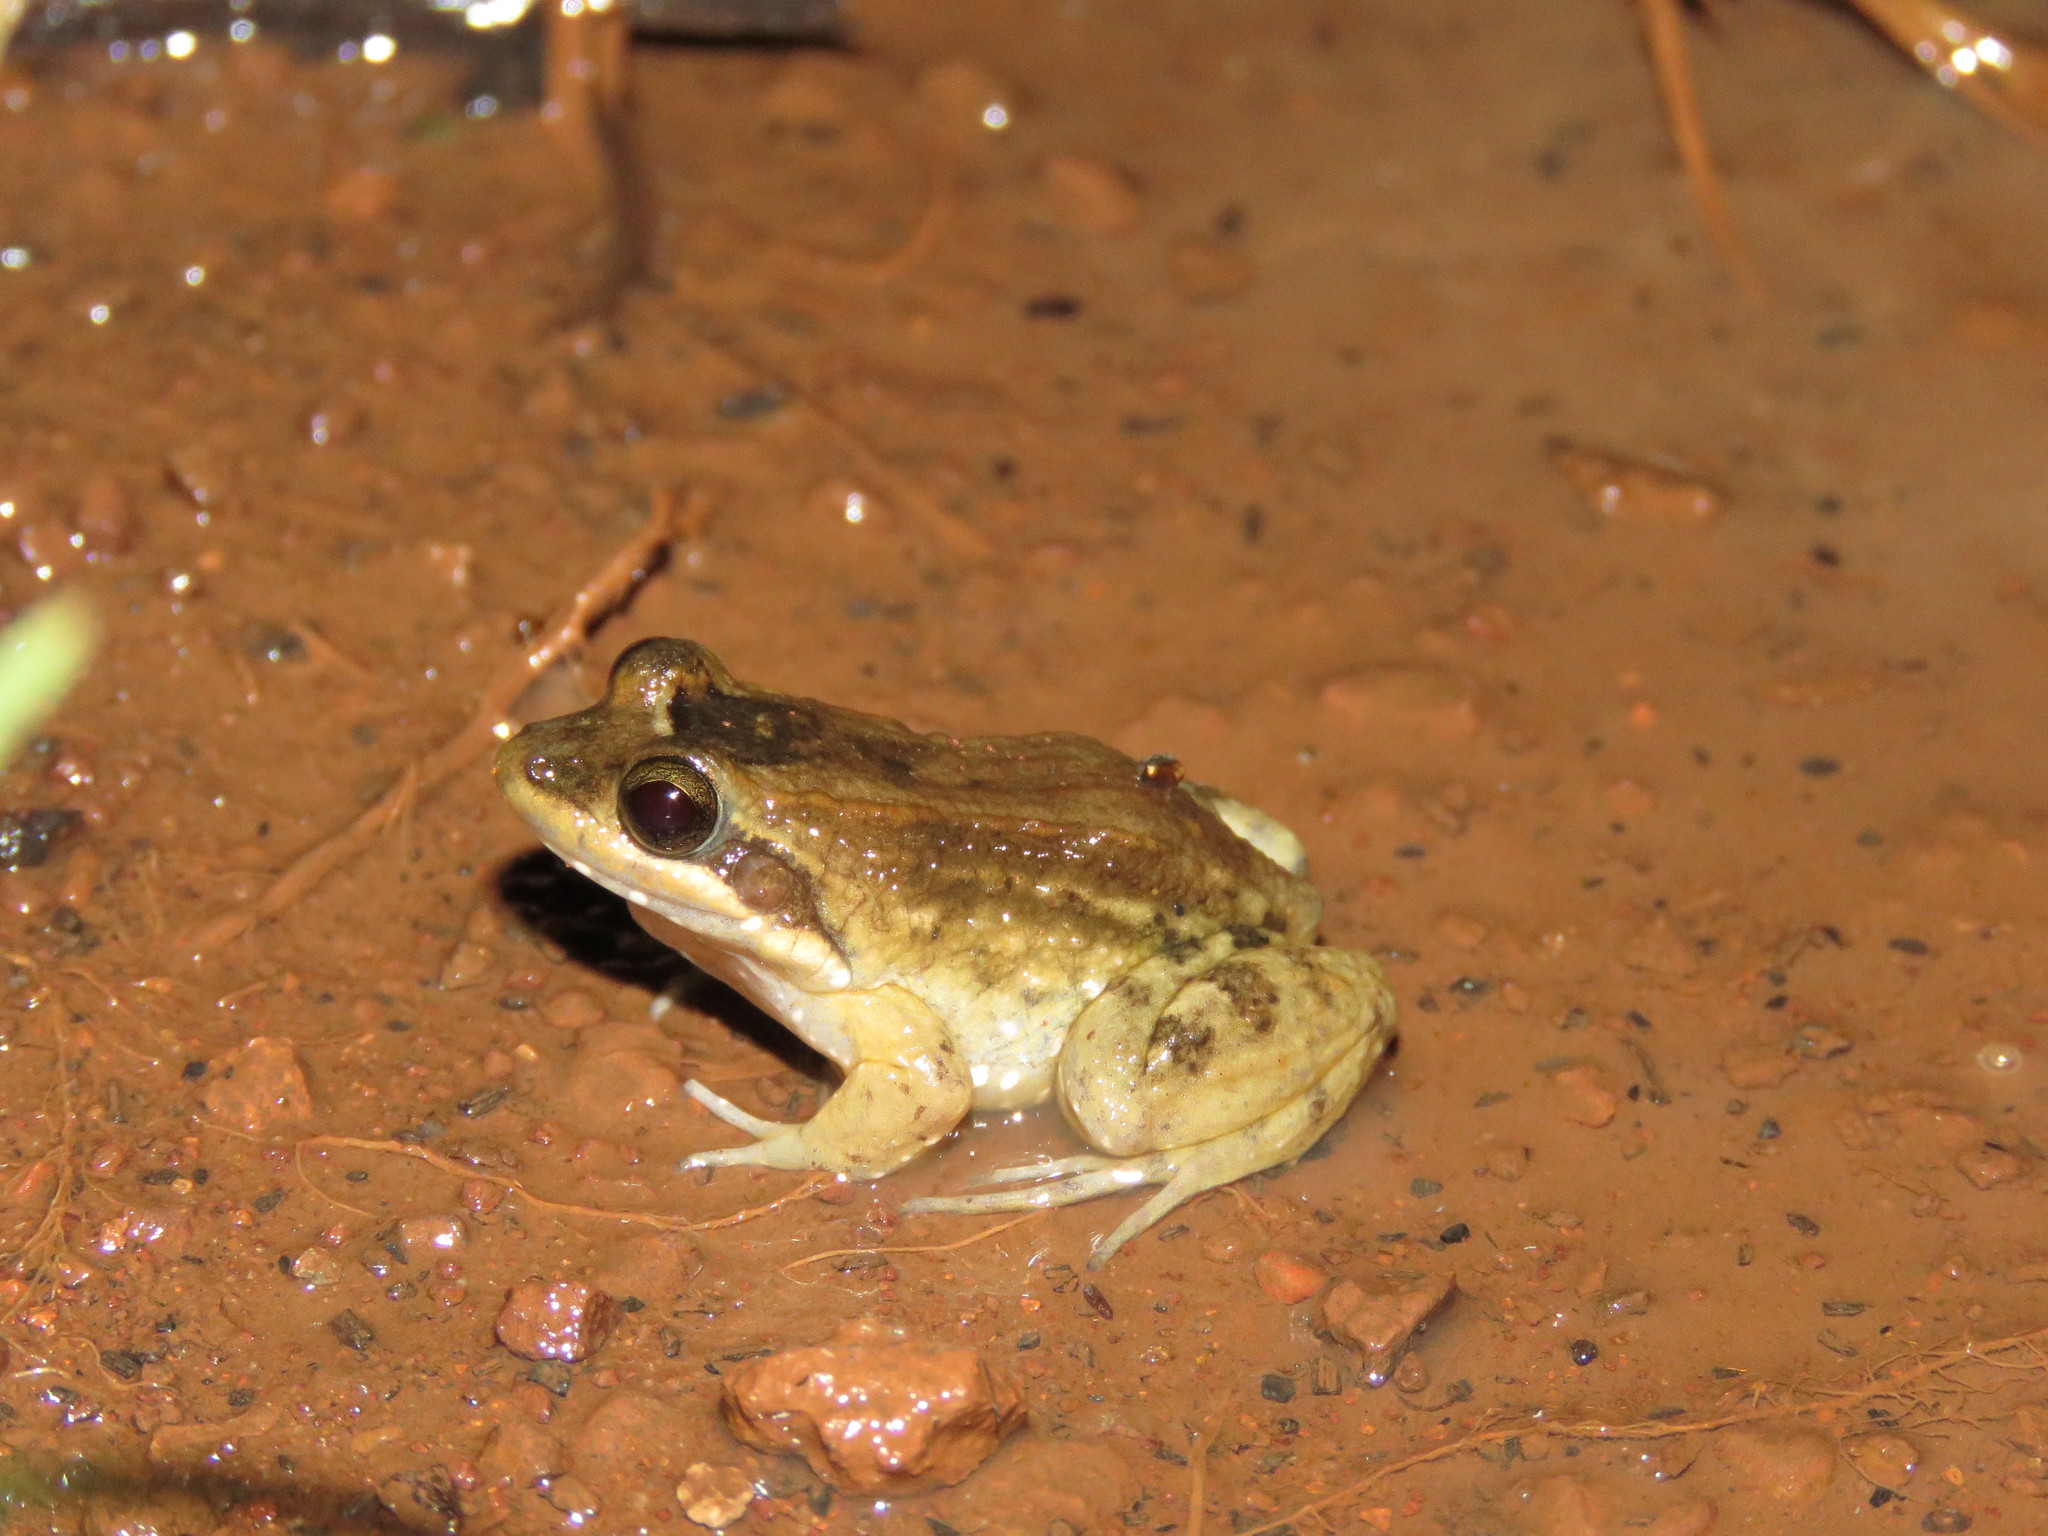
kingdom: Animalia
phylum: Chordata
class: Amphibia
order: Anura
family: Leptodactylidae
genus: Leptodactylus
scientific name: Leptodactylus podicipinus
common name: Pointedbelly frog
